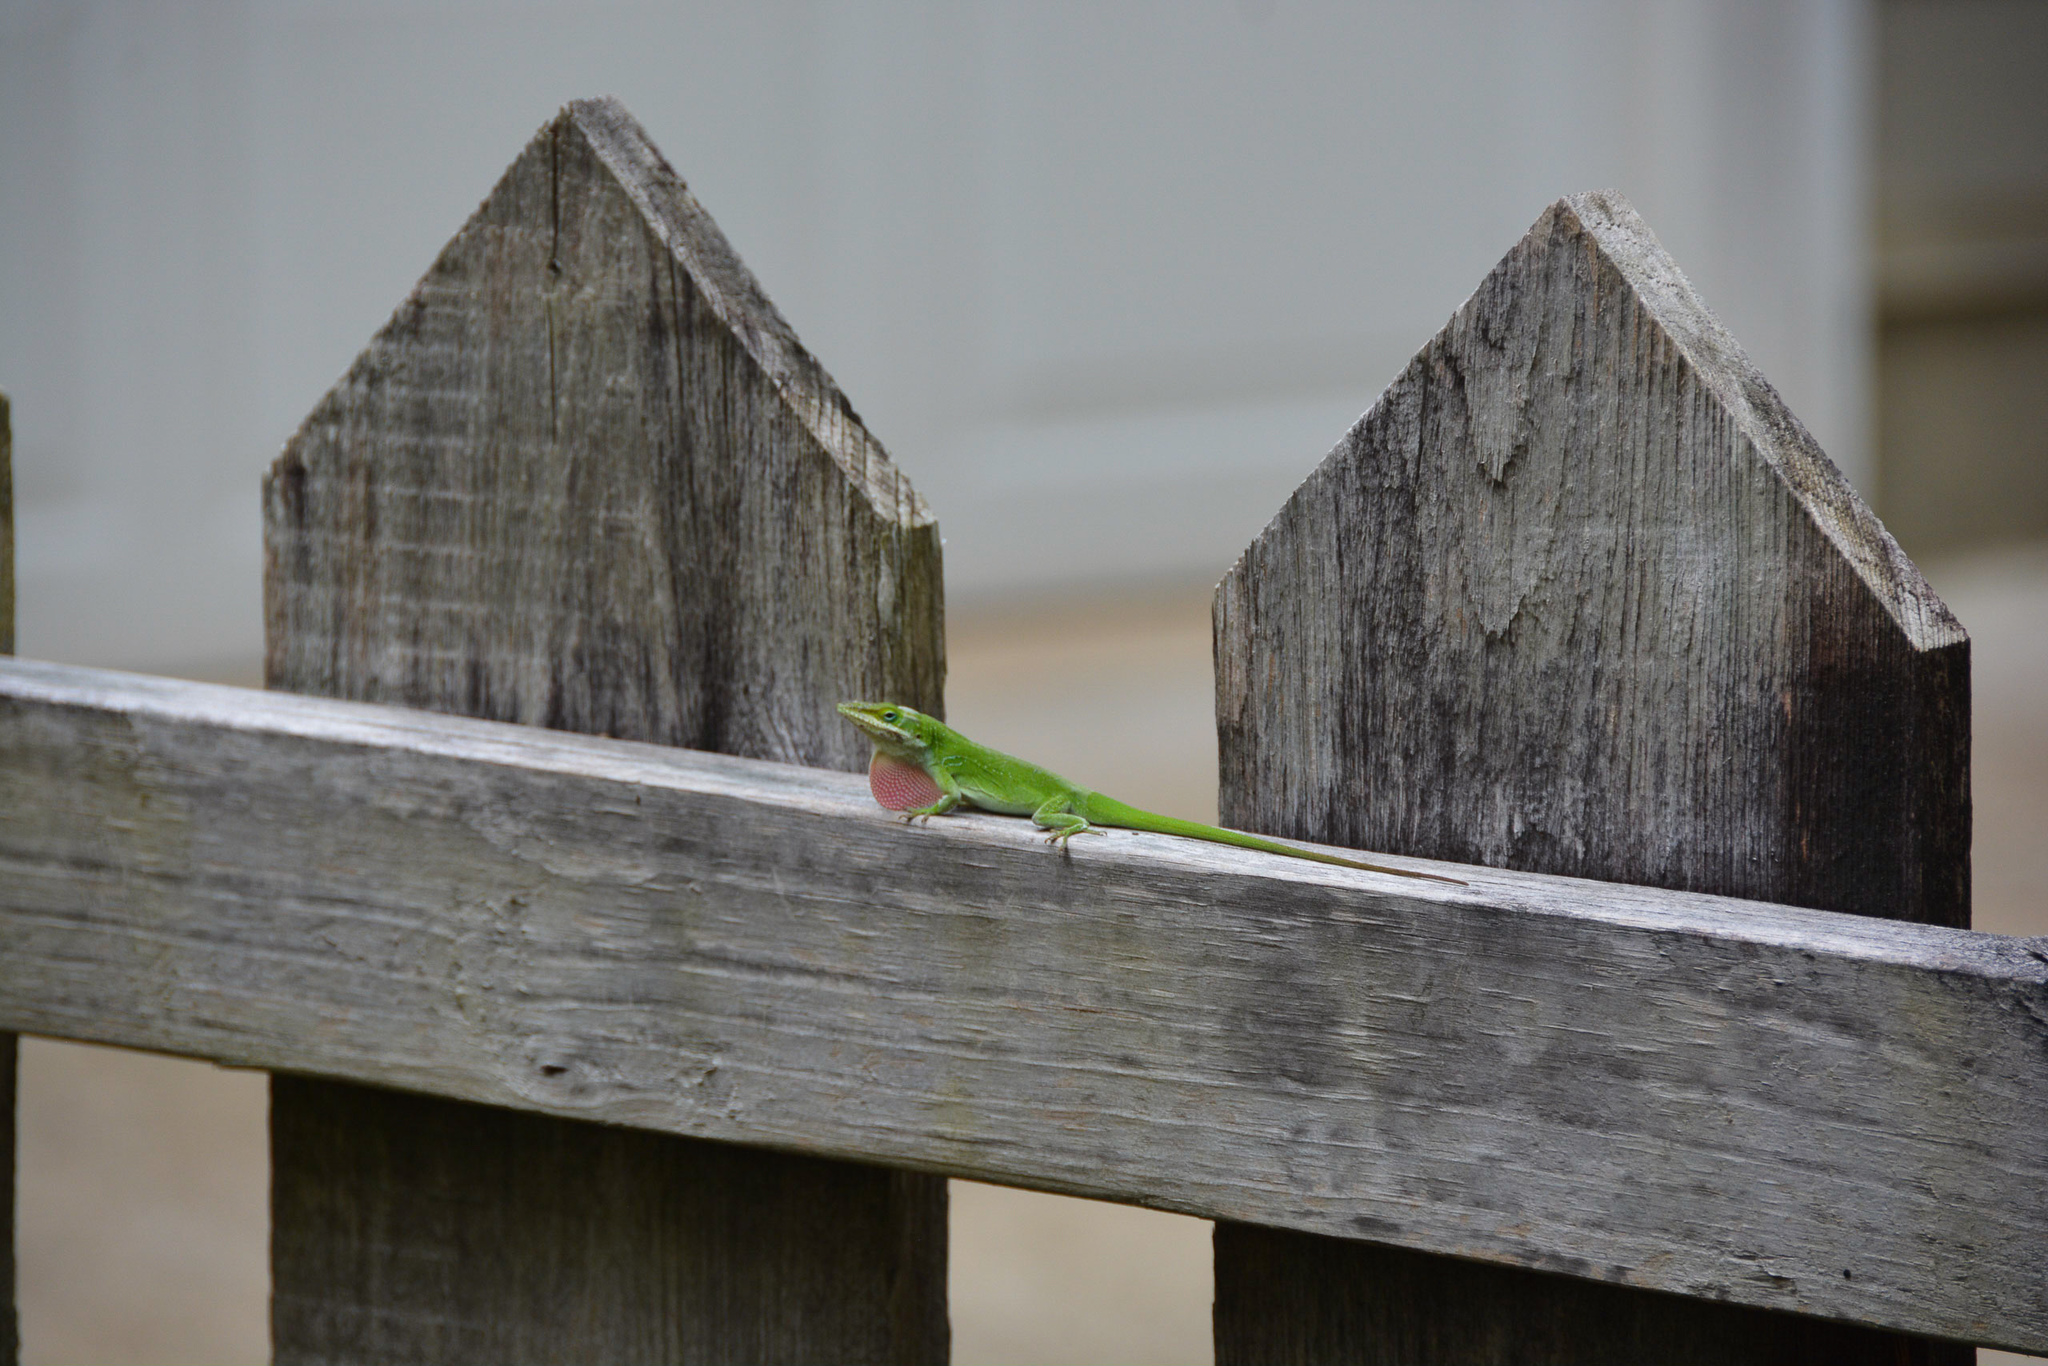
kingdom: Animalia
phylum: Chordata
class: Squamata
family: Dactyloidae
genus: Anolis
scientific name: Anolis carolinensis
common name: Green anole
